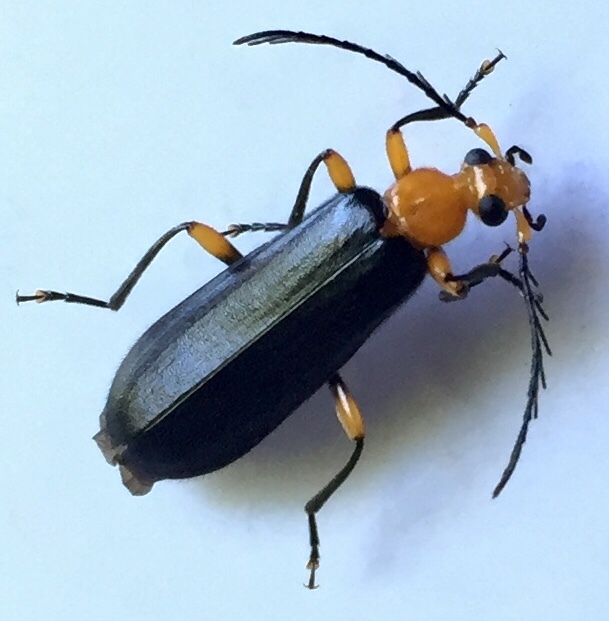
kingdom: Animalia
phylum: Arthropoda
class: Insecta
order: Coleoptera
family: Pyrochroidae
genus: Neopyrochroa
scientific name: Neopyrochroa femoralis
